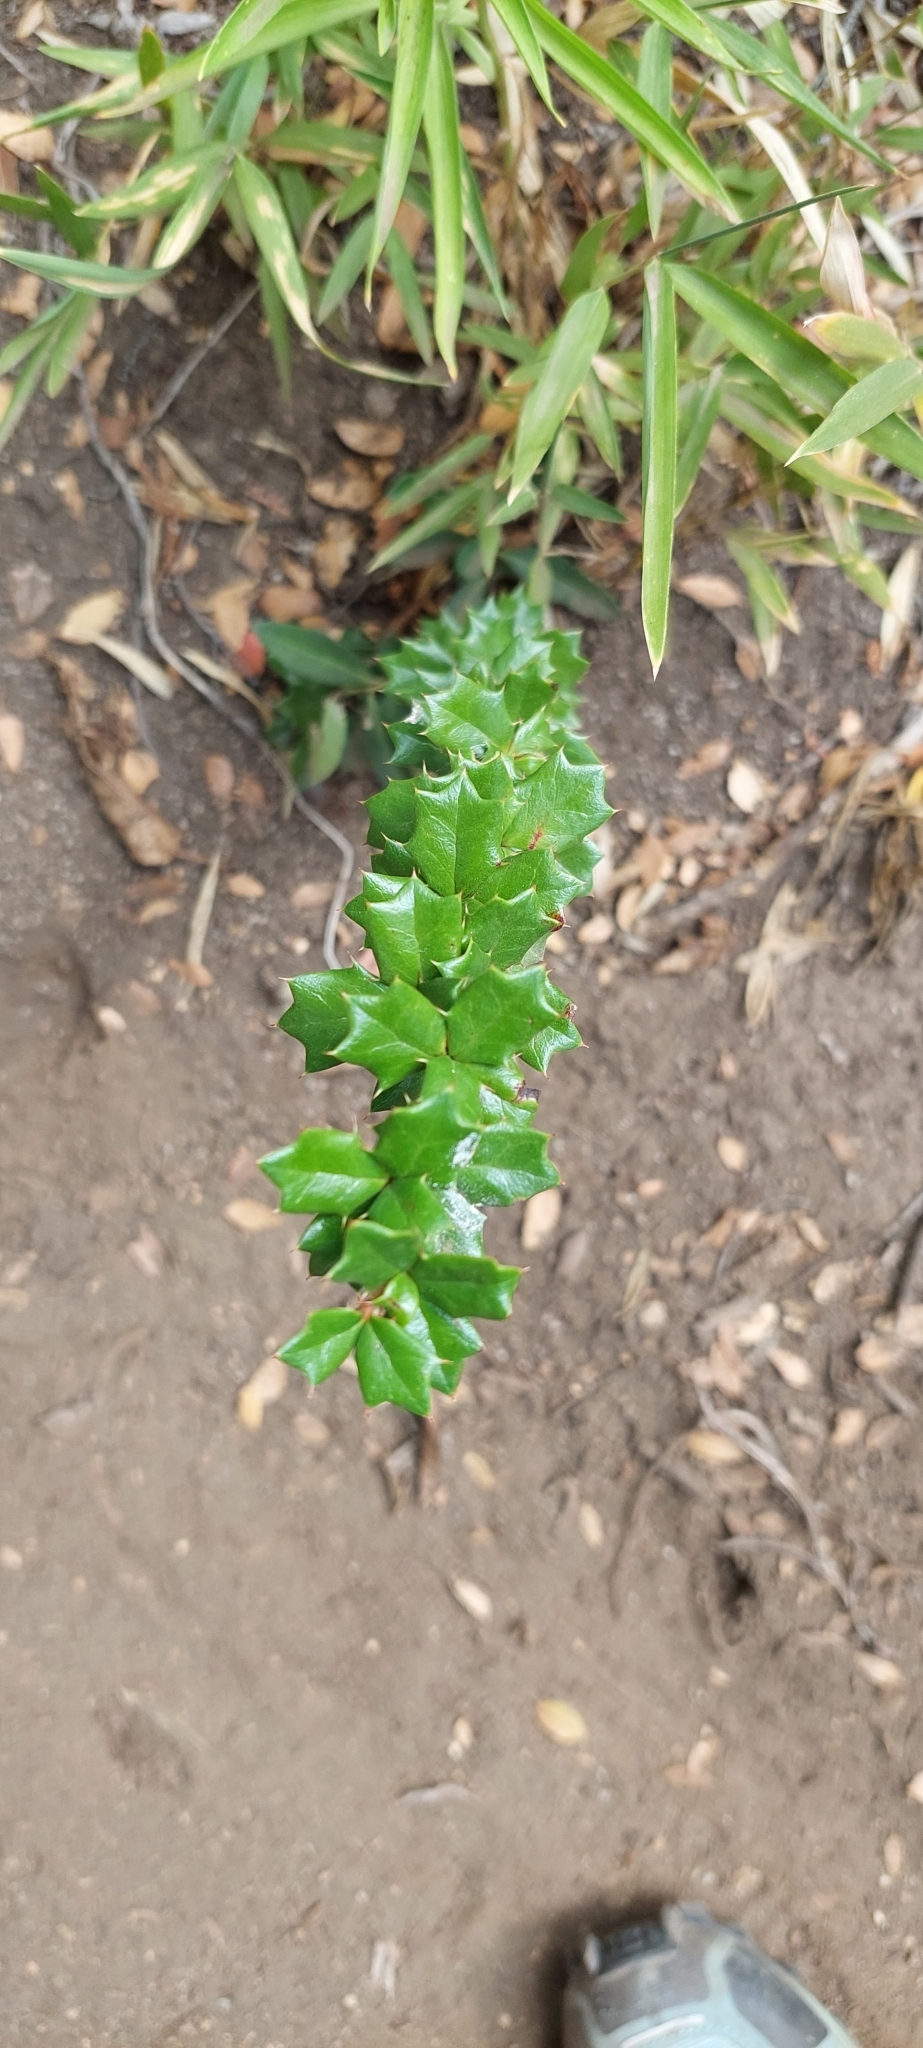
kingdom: Plantae
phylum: Tracheophyta
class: Magnoliopsida
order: Ranunculales
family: Berberidaceae
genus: Berberis
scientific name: Berberis darwinii
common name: Darwin's barberry
